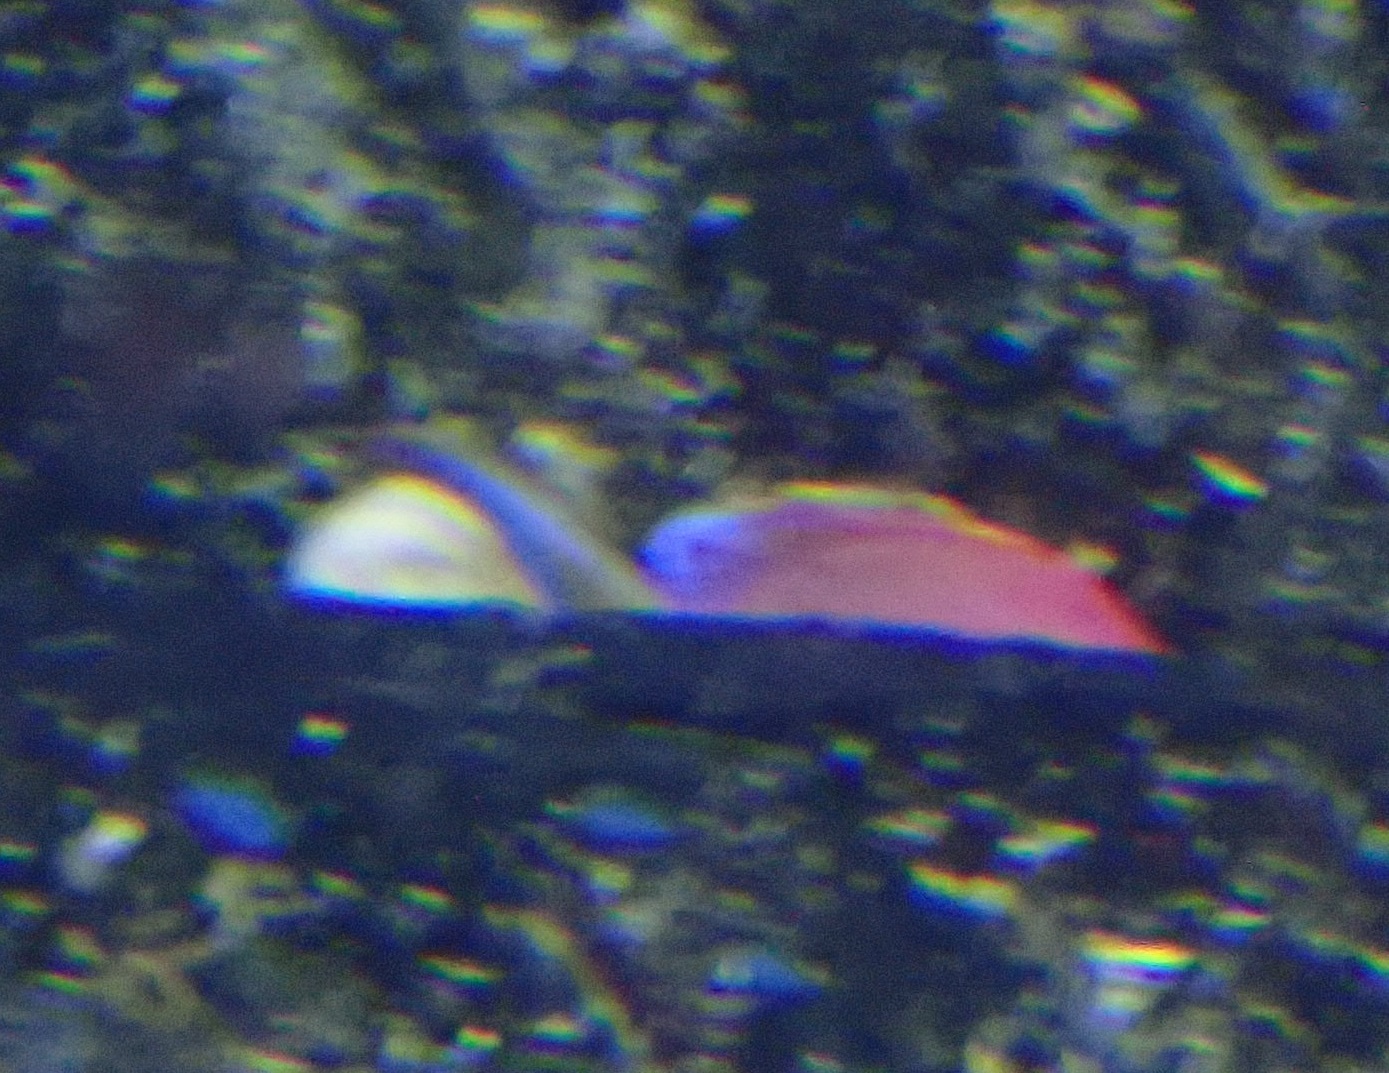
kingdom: Animalia
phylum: Chordata
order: Perciformes
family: Serranidae
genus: Anthias
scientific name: Anthias asperilinguis
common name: Jeweled gemfish
